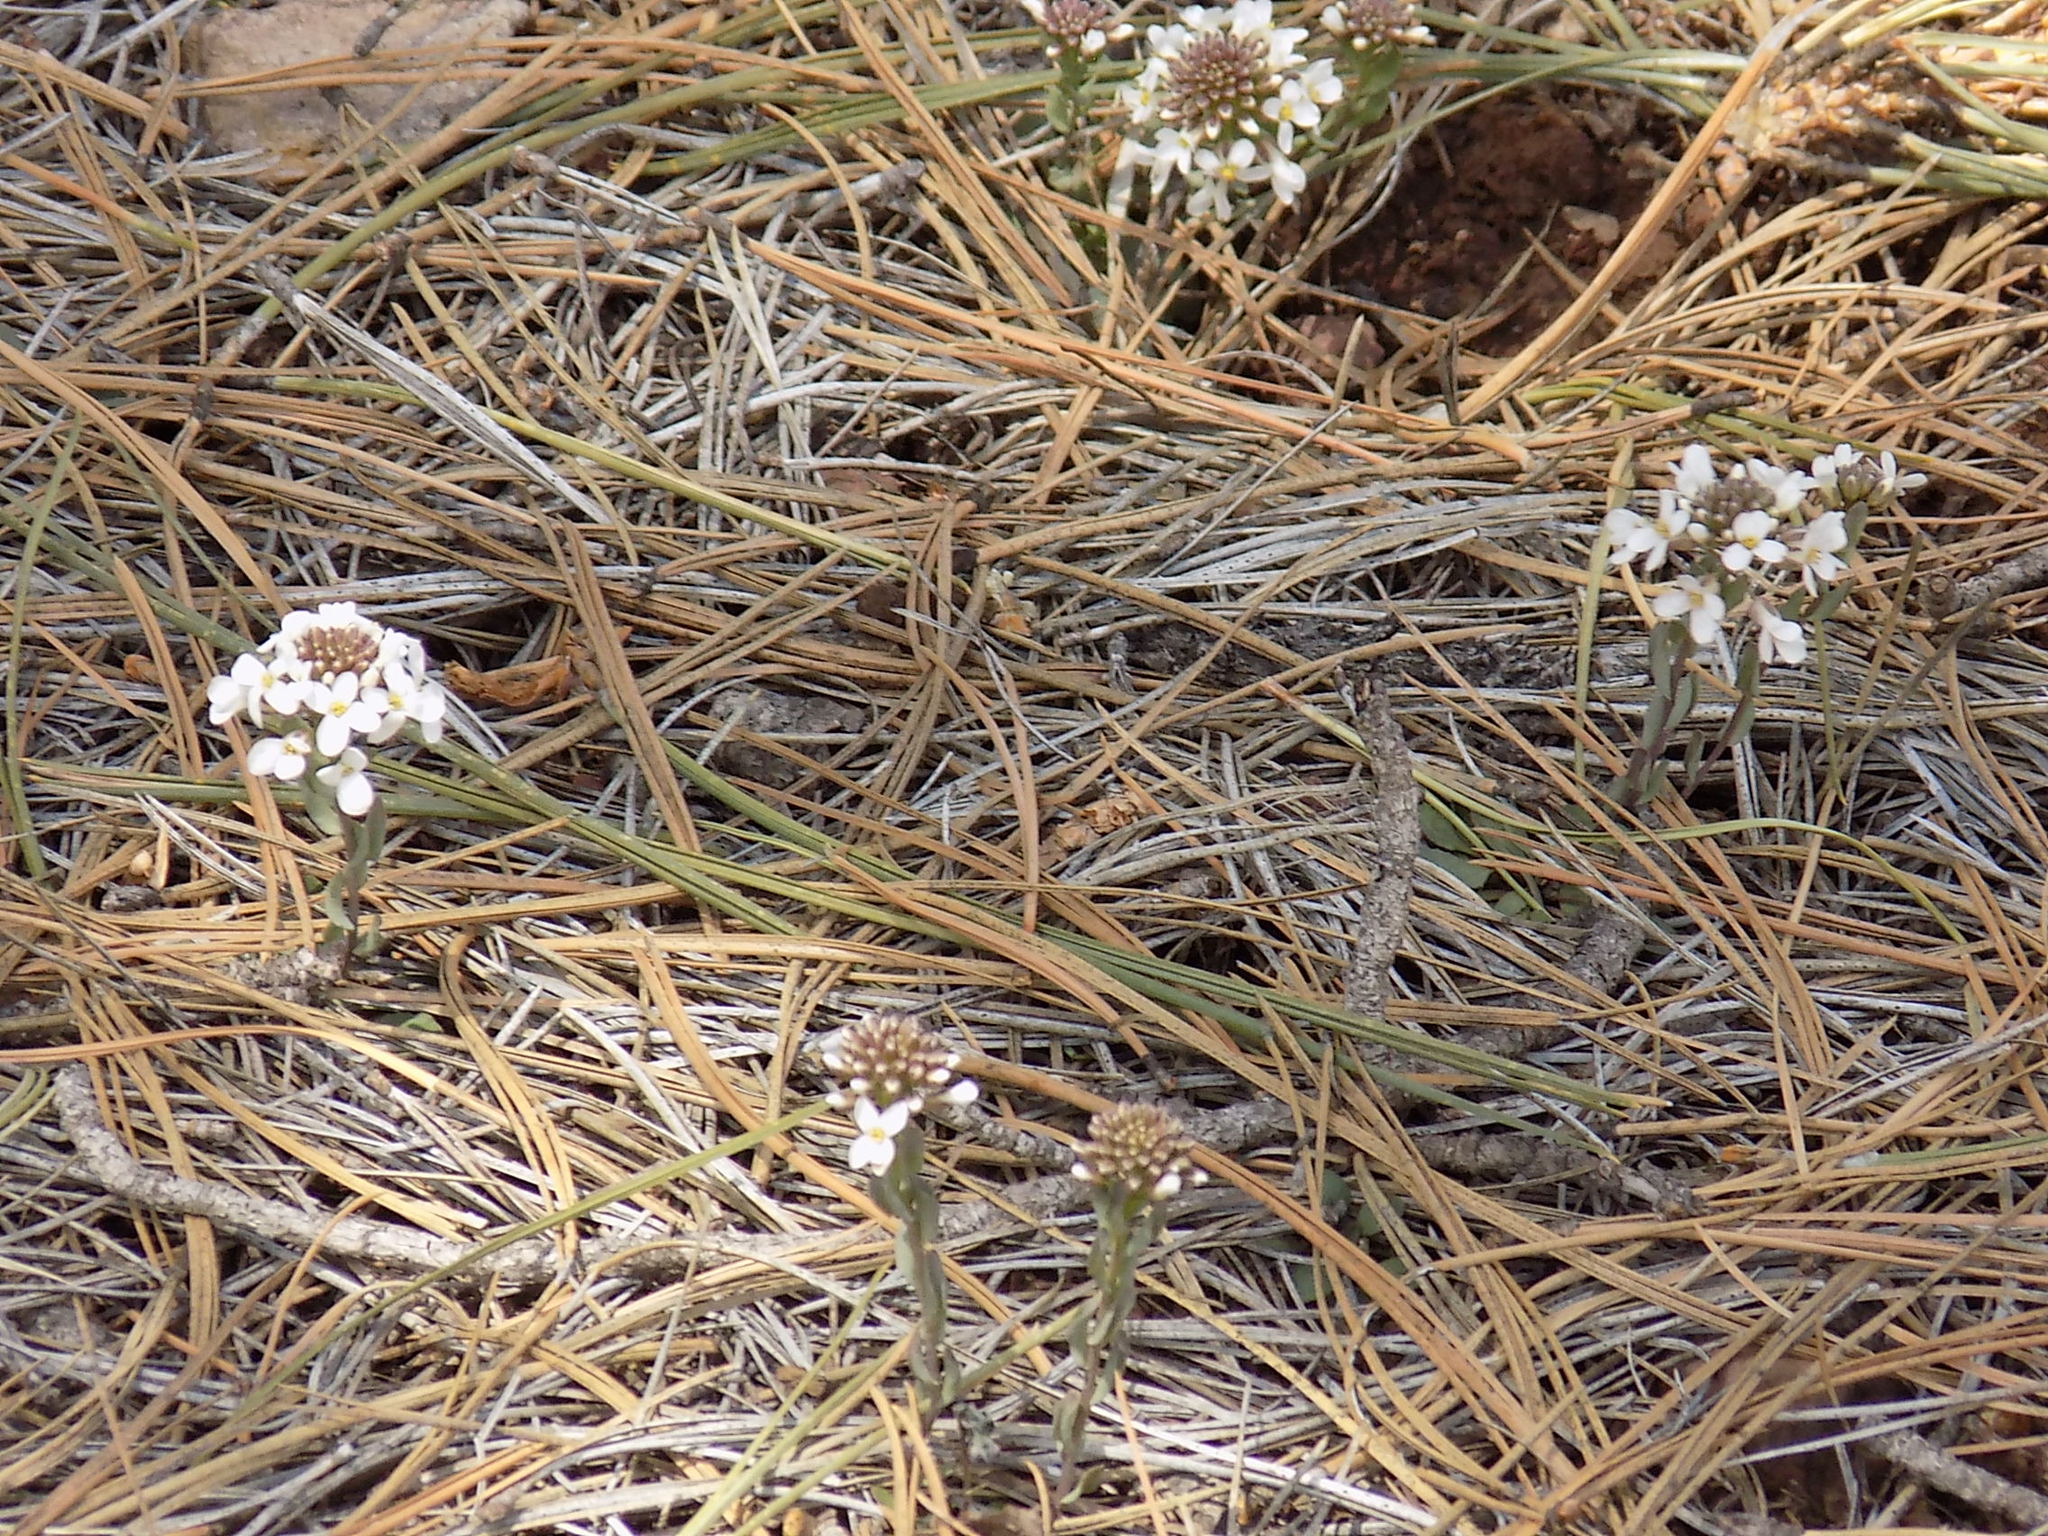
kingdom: Plantae
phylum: Tracheophyta
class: Magnoliopsida
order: Brassicales
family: Brassicaceae
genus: Noccaea
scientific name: Noccaea fendleri
